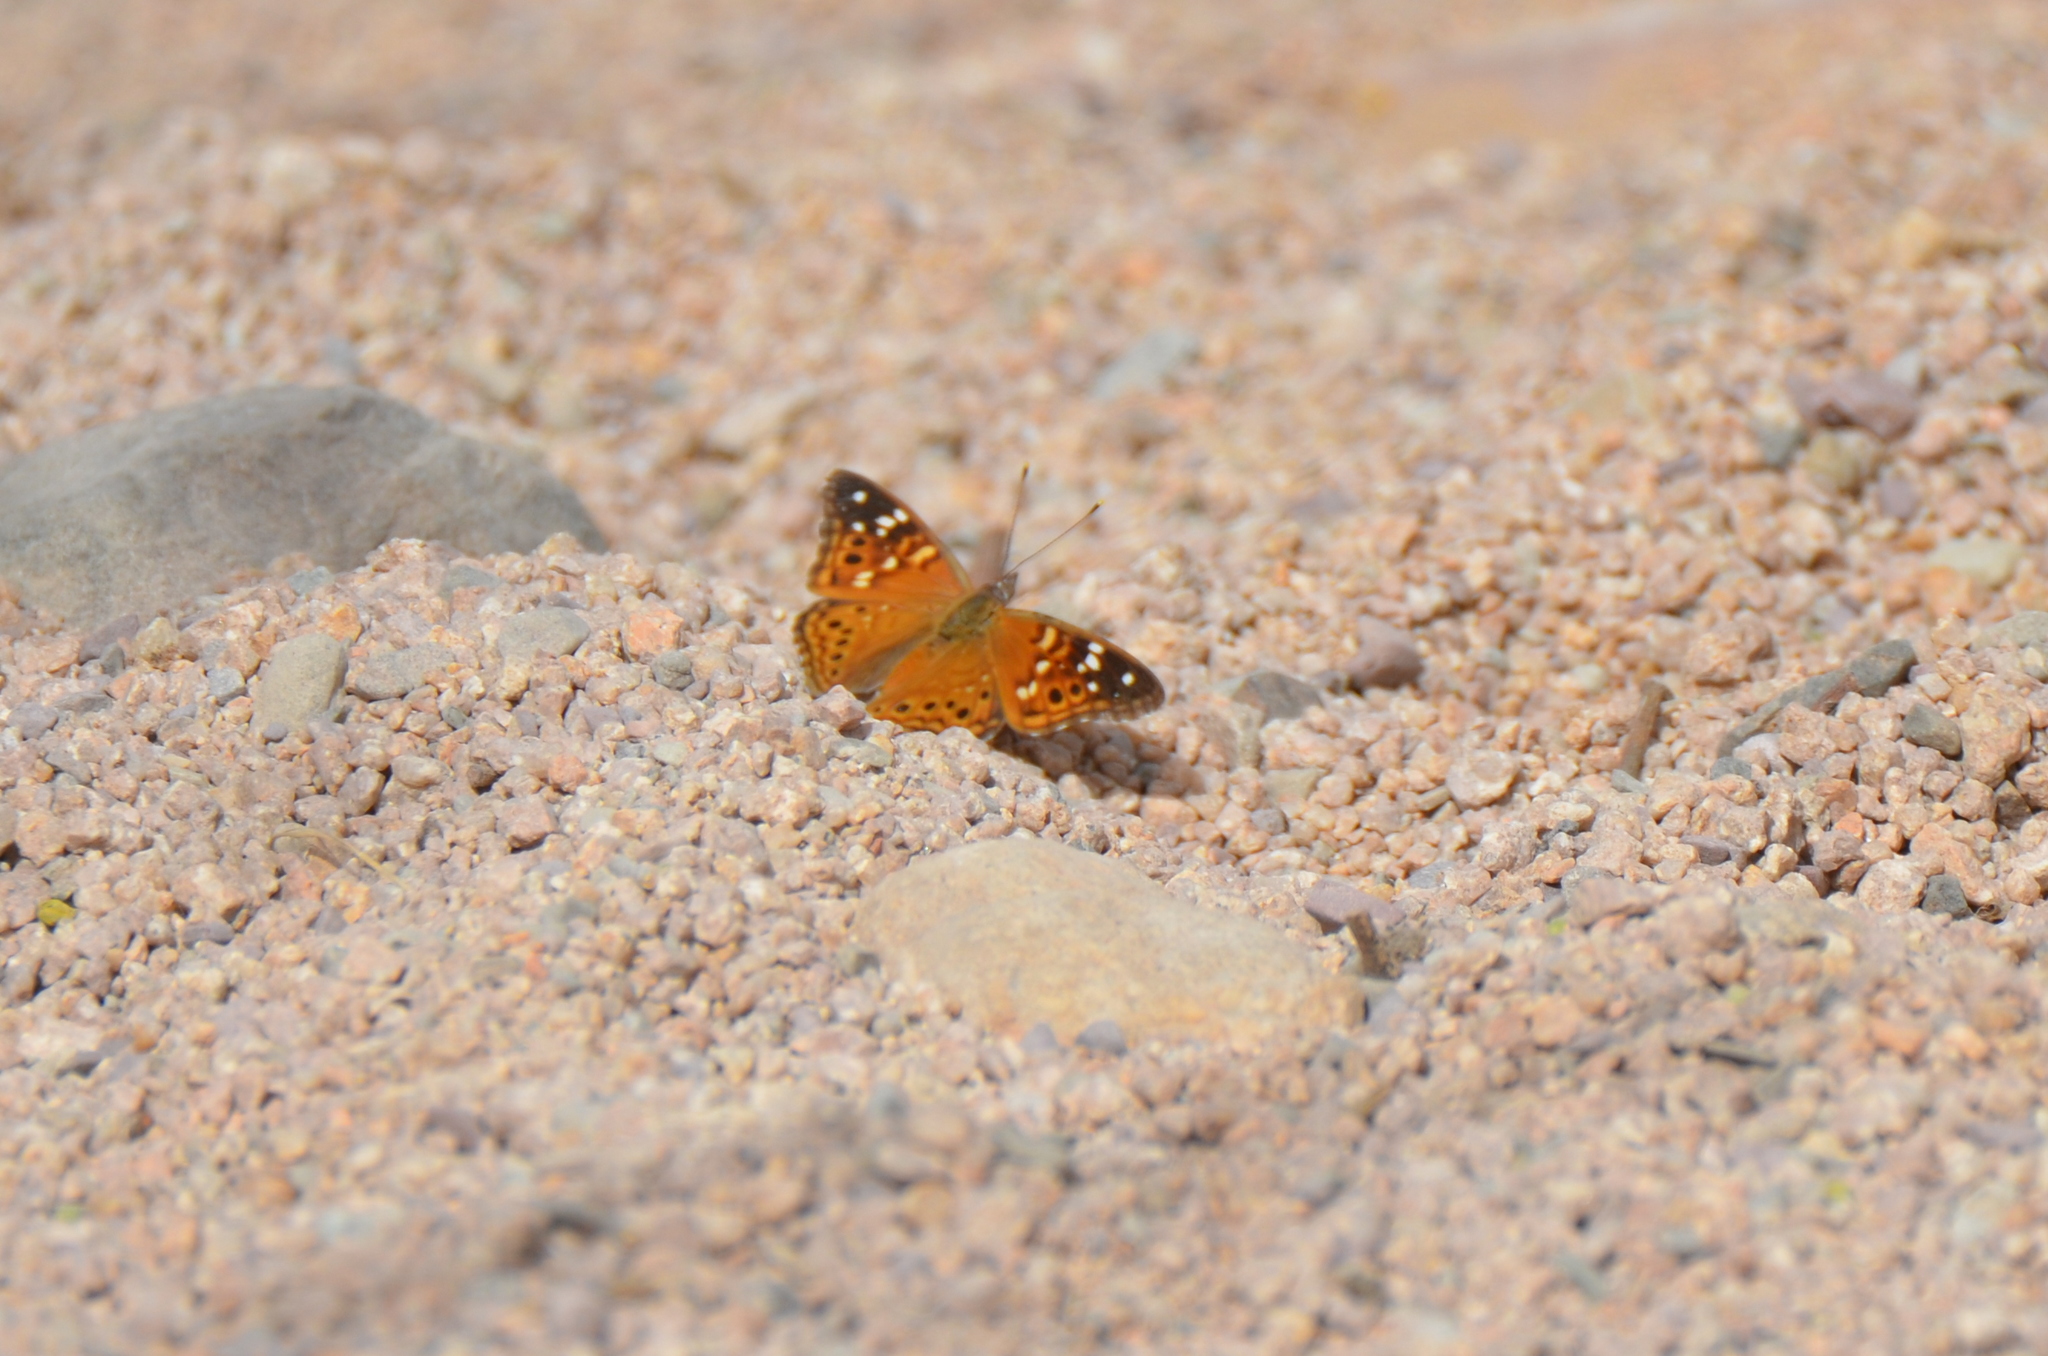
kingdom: Animalia
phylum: Arthropoda
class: Insecta
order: Lepidoptera
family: Nymphalidae
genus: Asterocampa
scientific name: Asterocampa leilia
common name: Empress leilia
